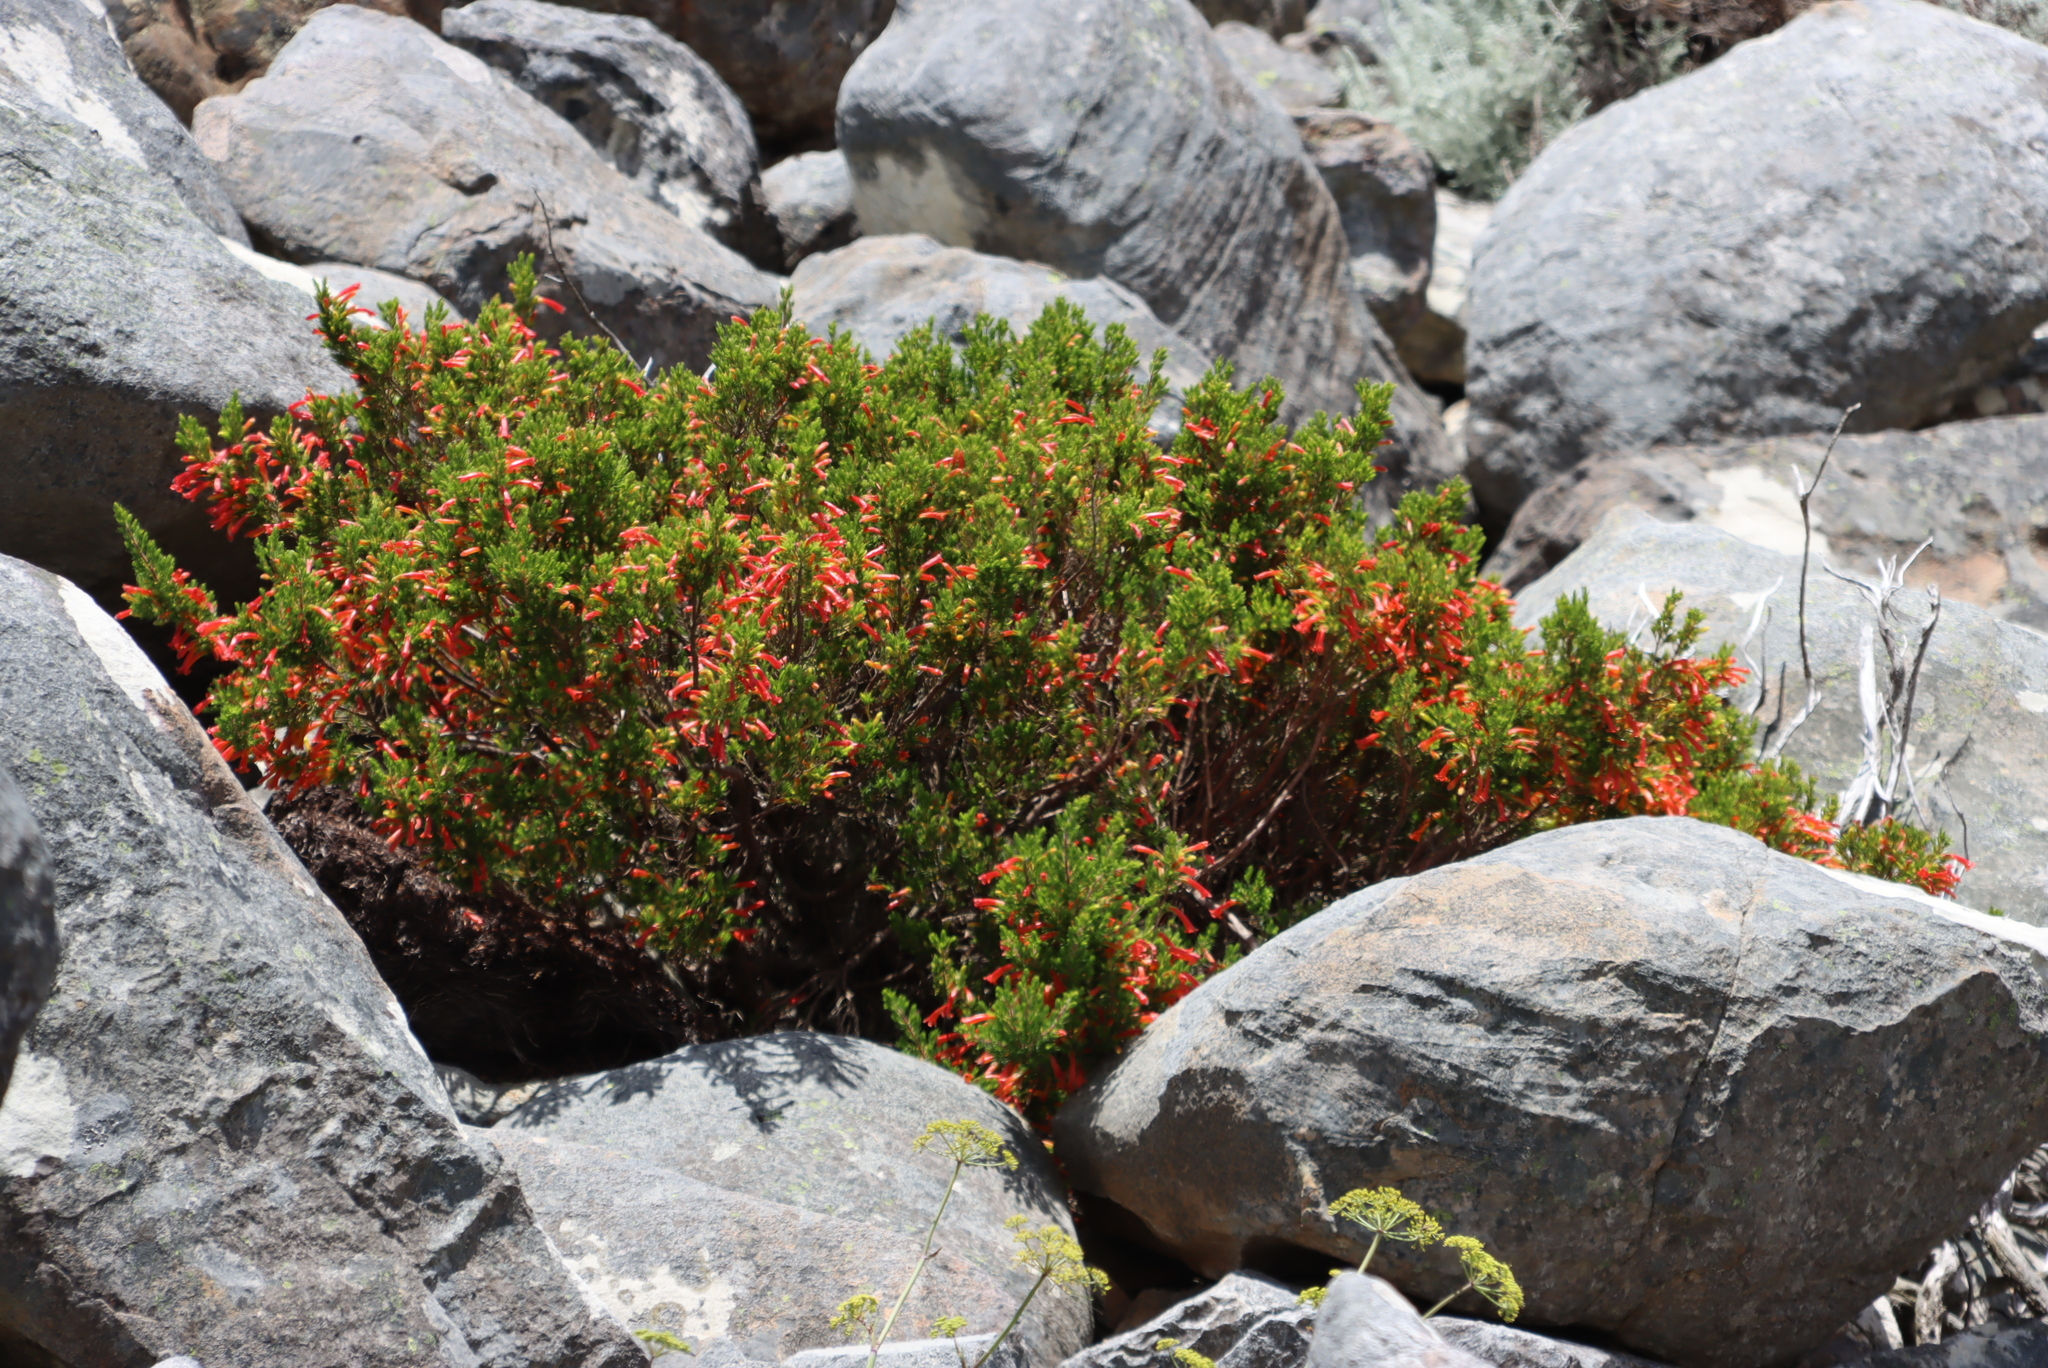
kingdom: Plantae
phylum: Tracheophyta
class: Magnoliopsida
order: Ericales
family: Ericaceae
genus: Erica
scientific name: Erica grandiflora
